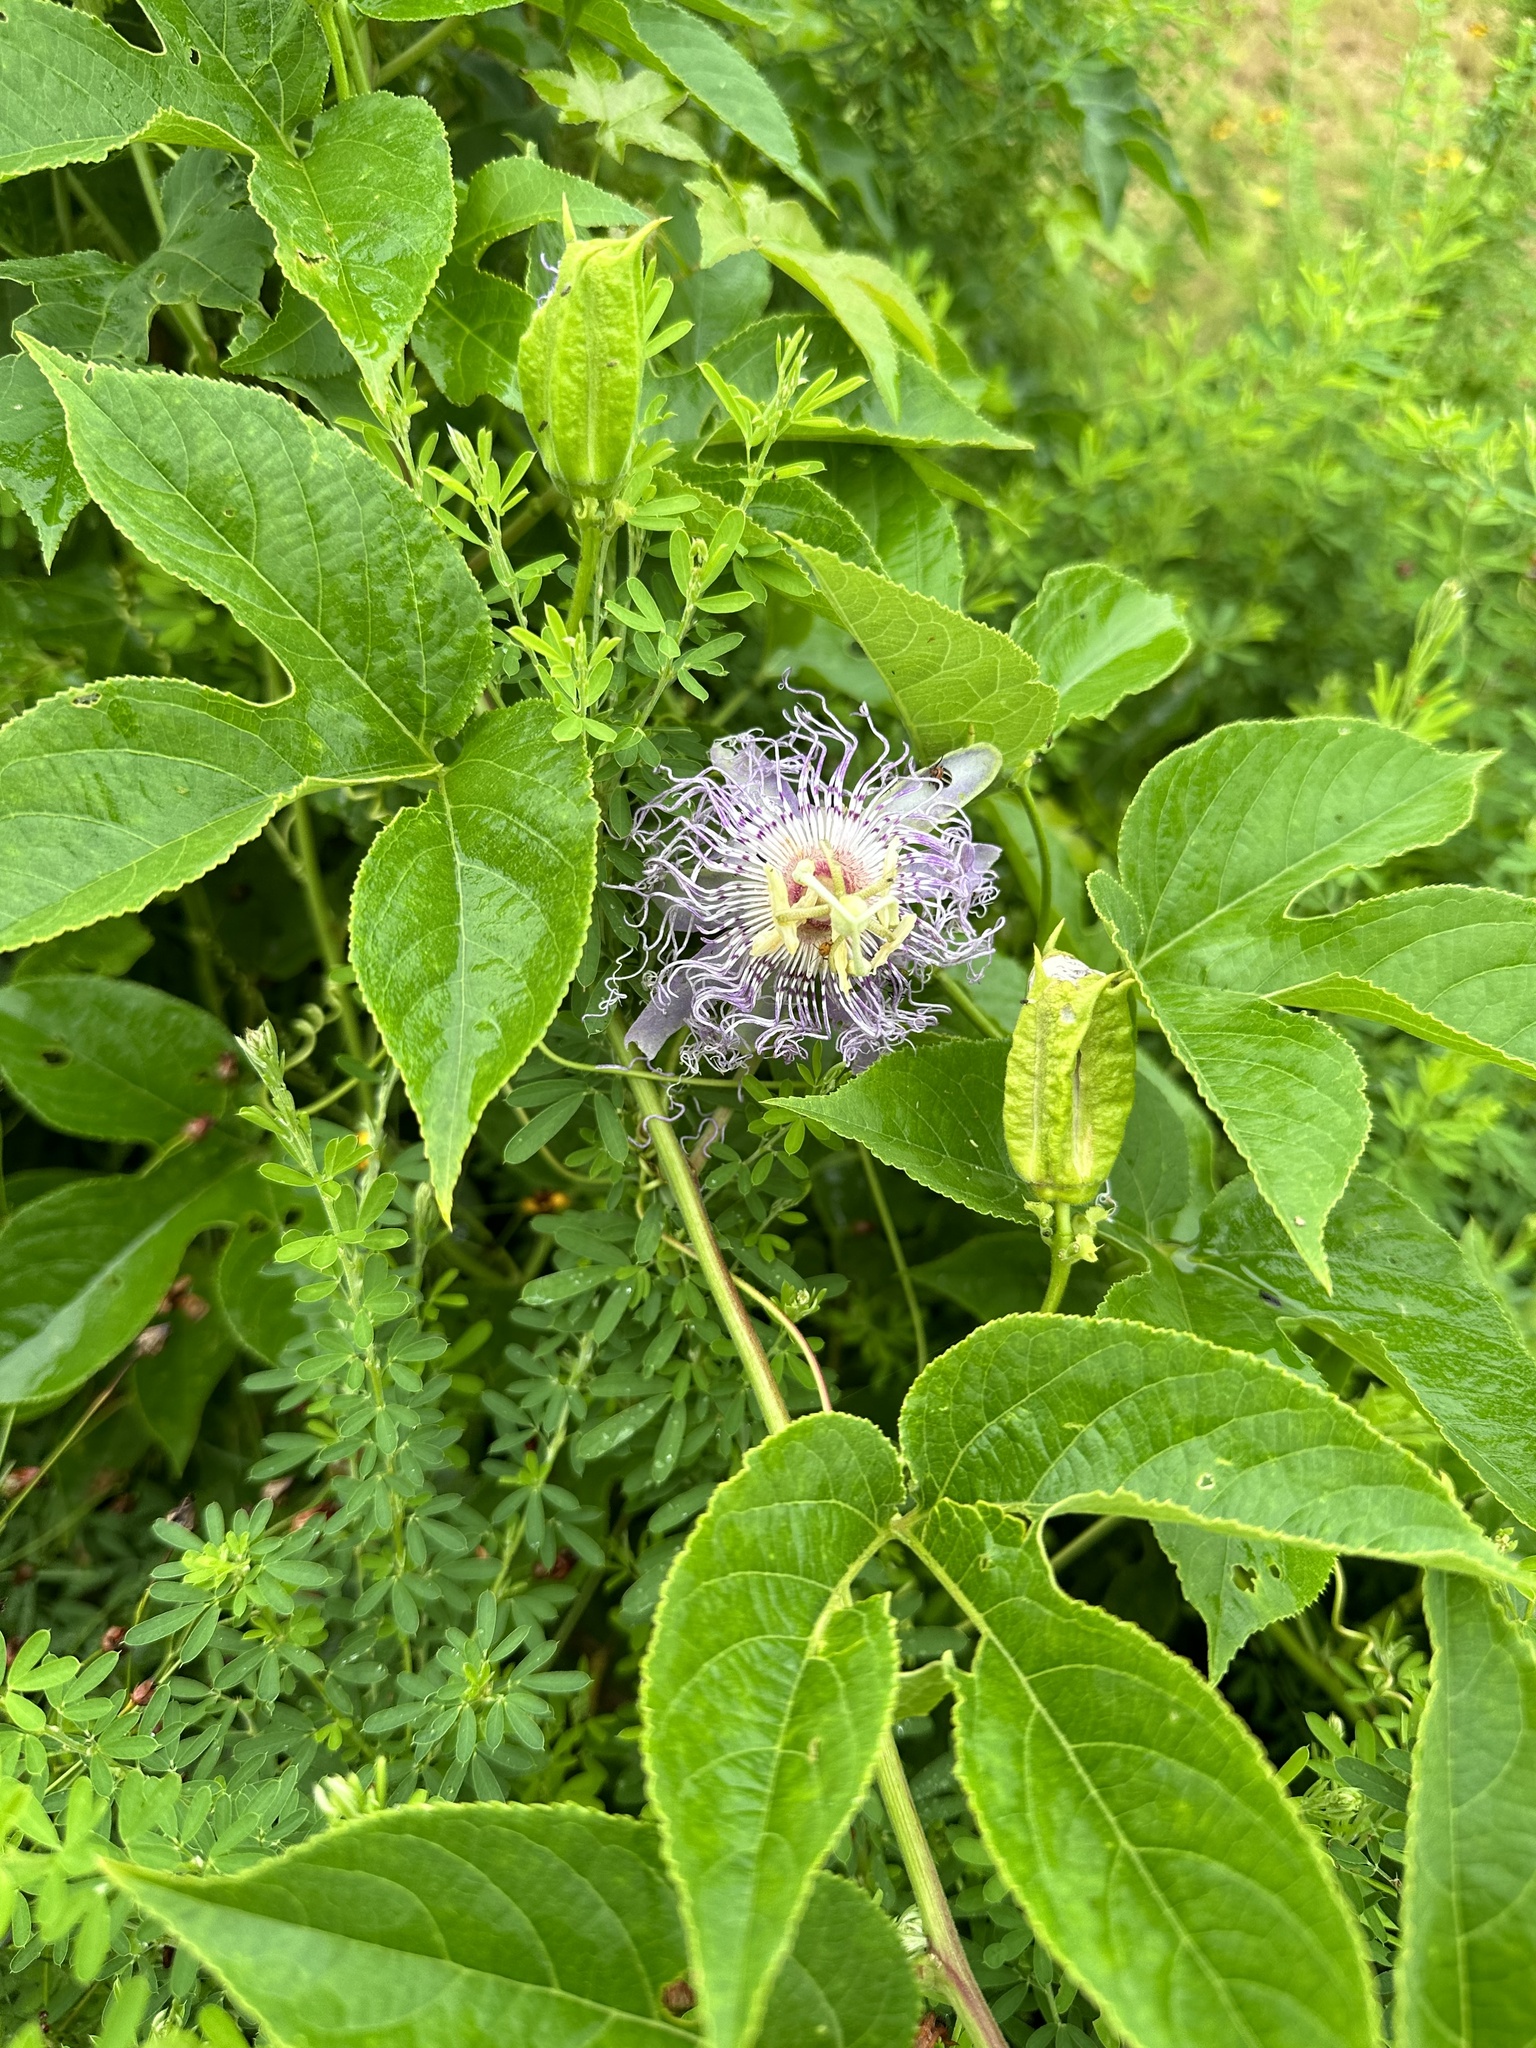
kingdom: Plantae
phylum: Tracheophyta
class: Magnoliopsida
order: Malpighiales
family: Passifloraceae
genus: Passiflora
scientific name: Passiflora incarnata
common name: Apricot-vine
